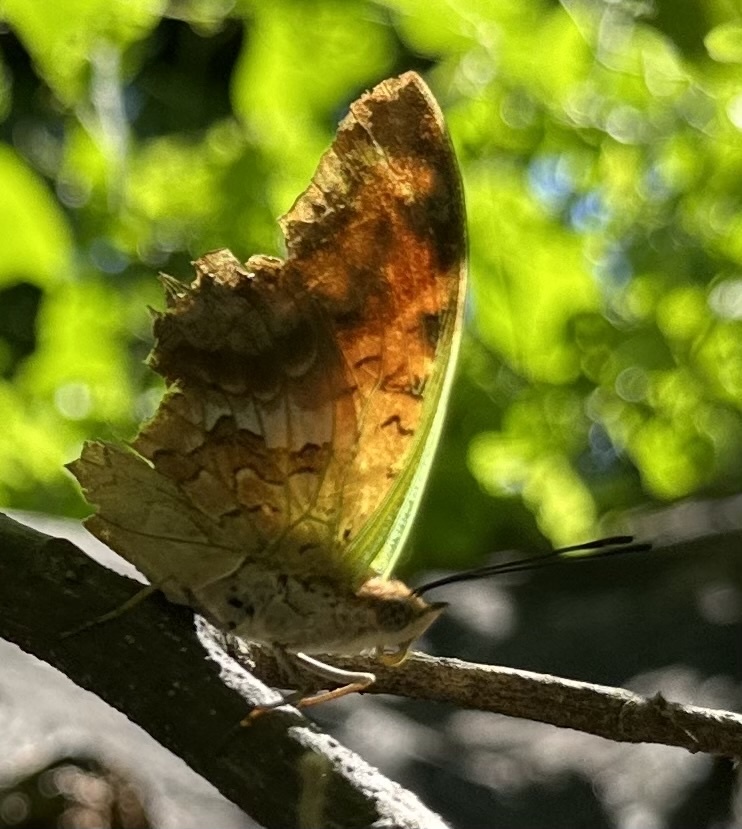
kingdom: Animalia
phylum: Arthropoda
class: Insecta
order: Lepidoptera
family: Nymphalidae
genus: Charaxes
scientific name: Charaxes candiope
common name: Green-veined charaxes
